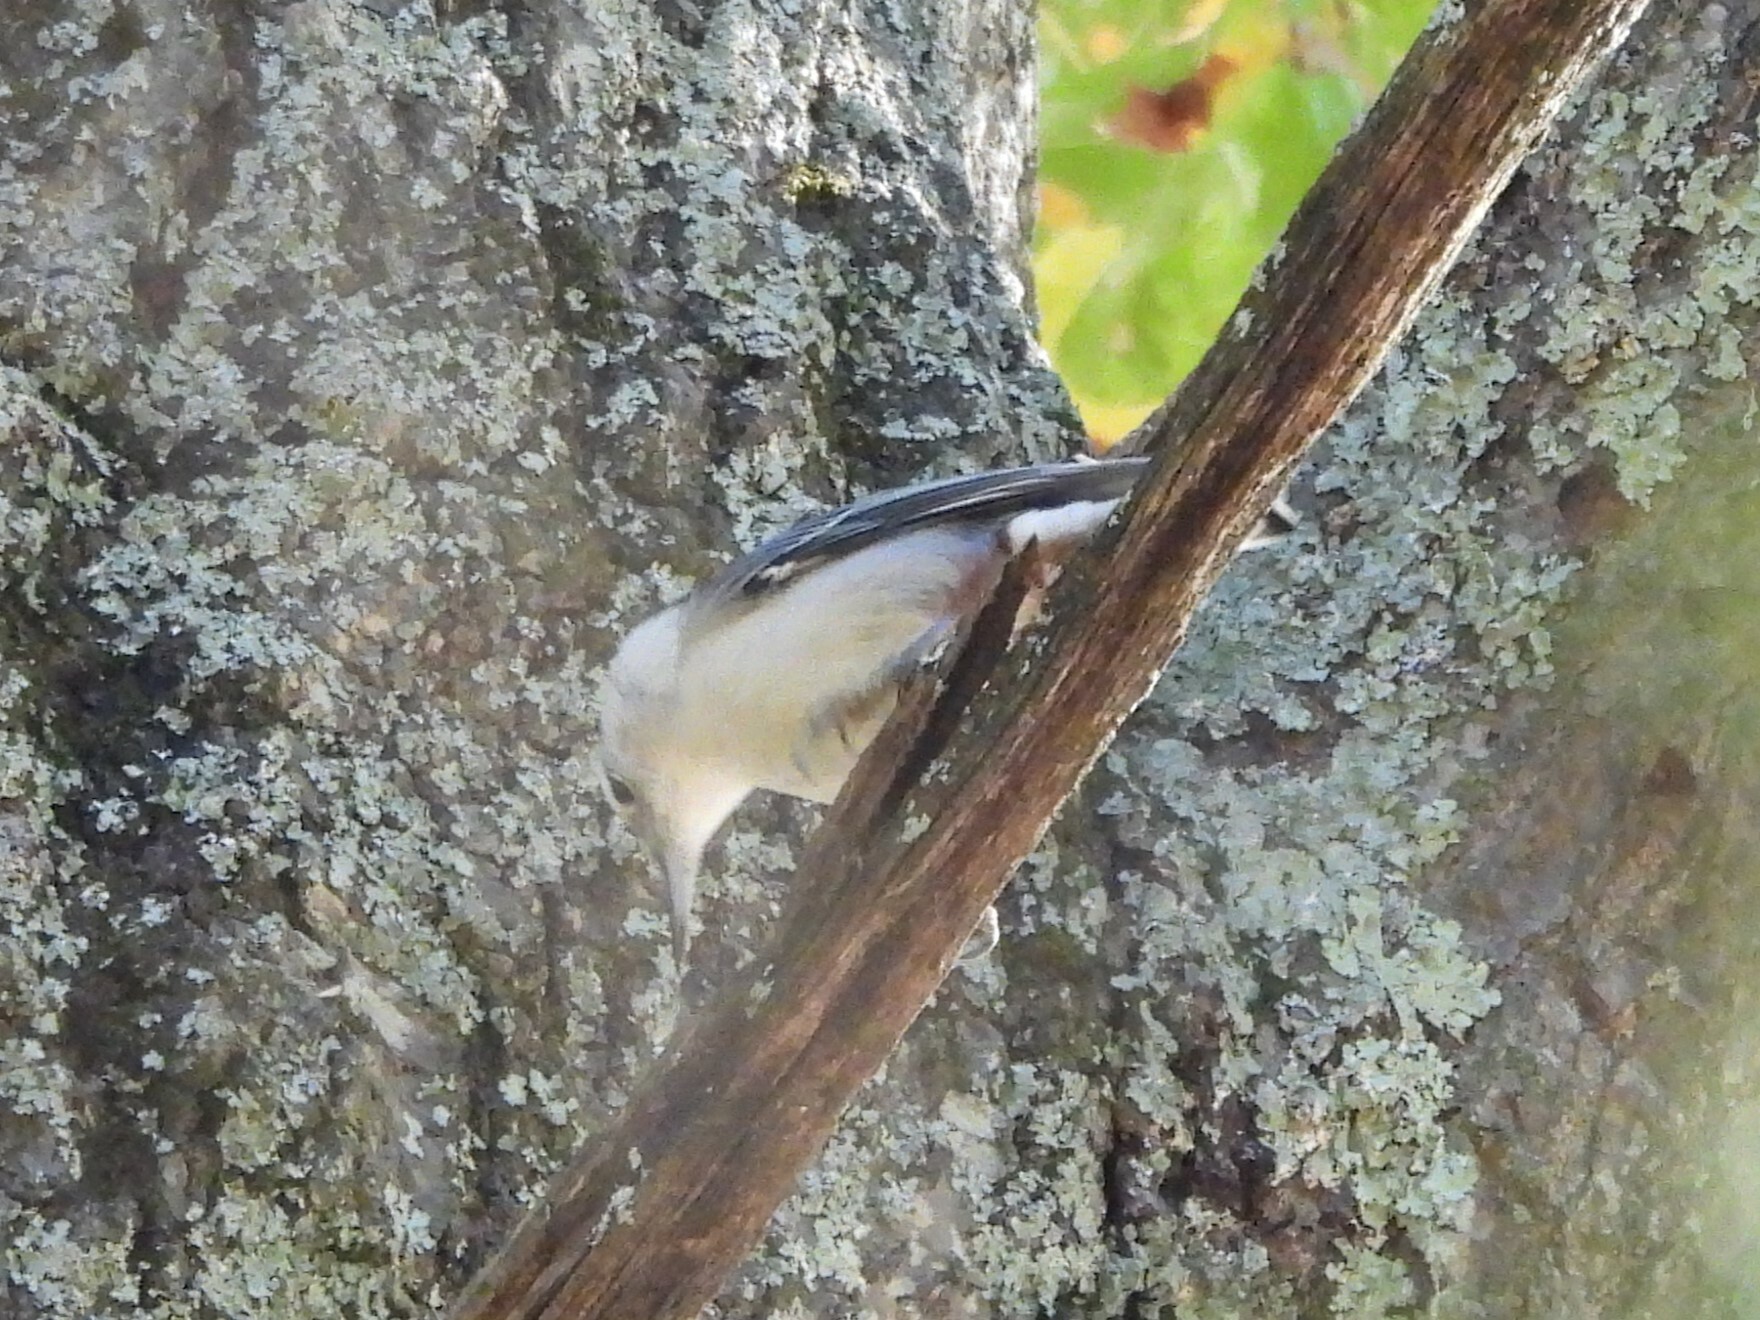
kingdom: Animalia
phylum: Chordata
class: Aves
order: Passeriformes
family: Sittidae
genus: Sitta
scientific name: Sitta carolinensis
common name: White-breasted nuthatch
